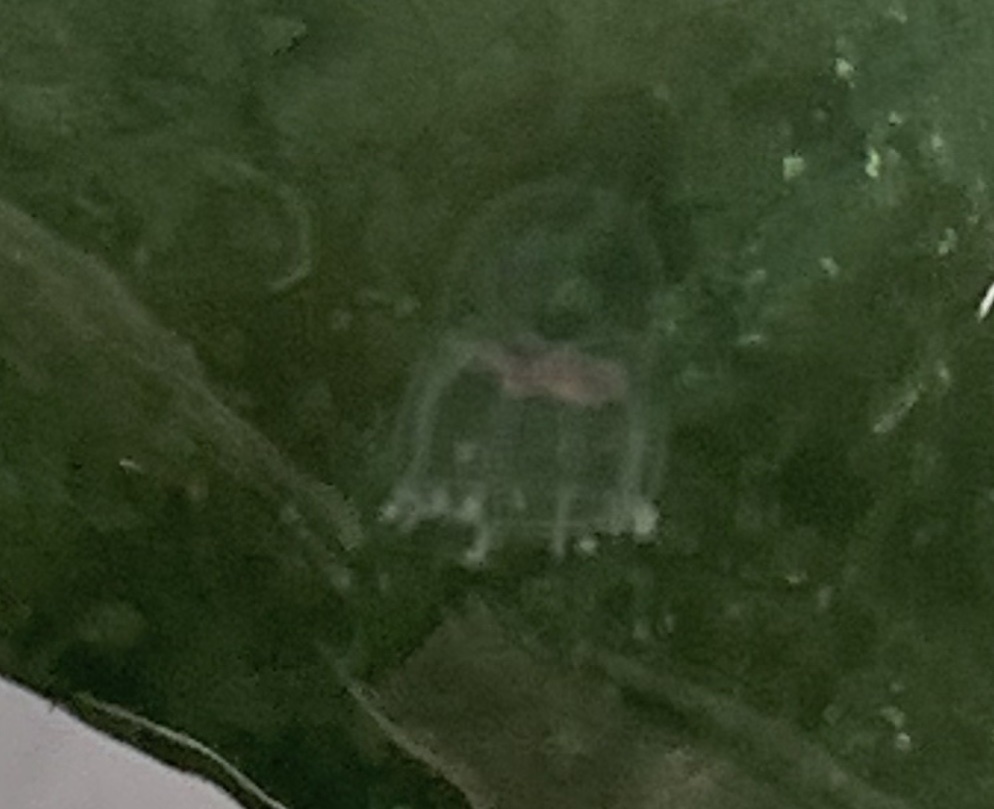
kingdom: Animalia
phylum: Cnidaria
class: Hydrozoa
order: Anthoathecata
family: Pandeidae
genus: Catablema
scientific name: Catablema vesicarium
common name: Constricted jellyfish
